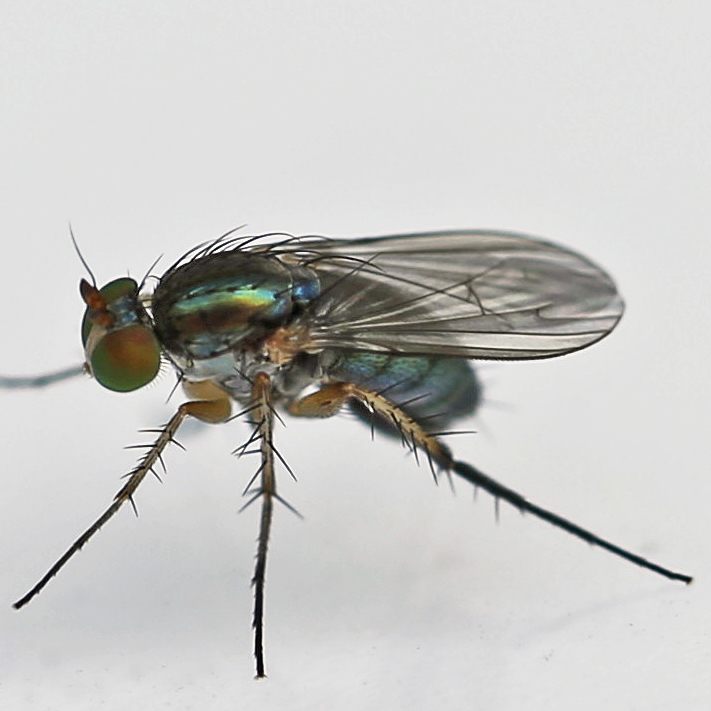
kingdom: Animalia
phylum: Arthropoda
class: Insecta
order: Diptera
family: Dolichopodidae
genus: Dolichopus
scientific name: Dolichopus reflectus
